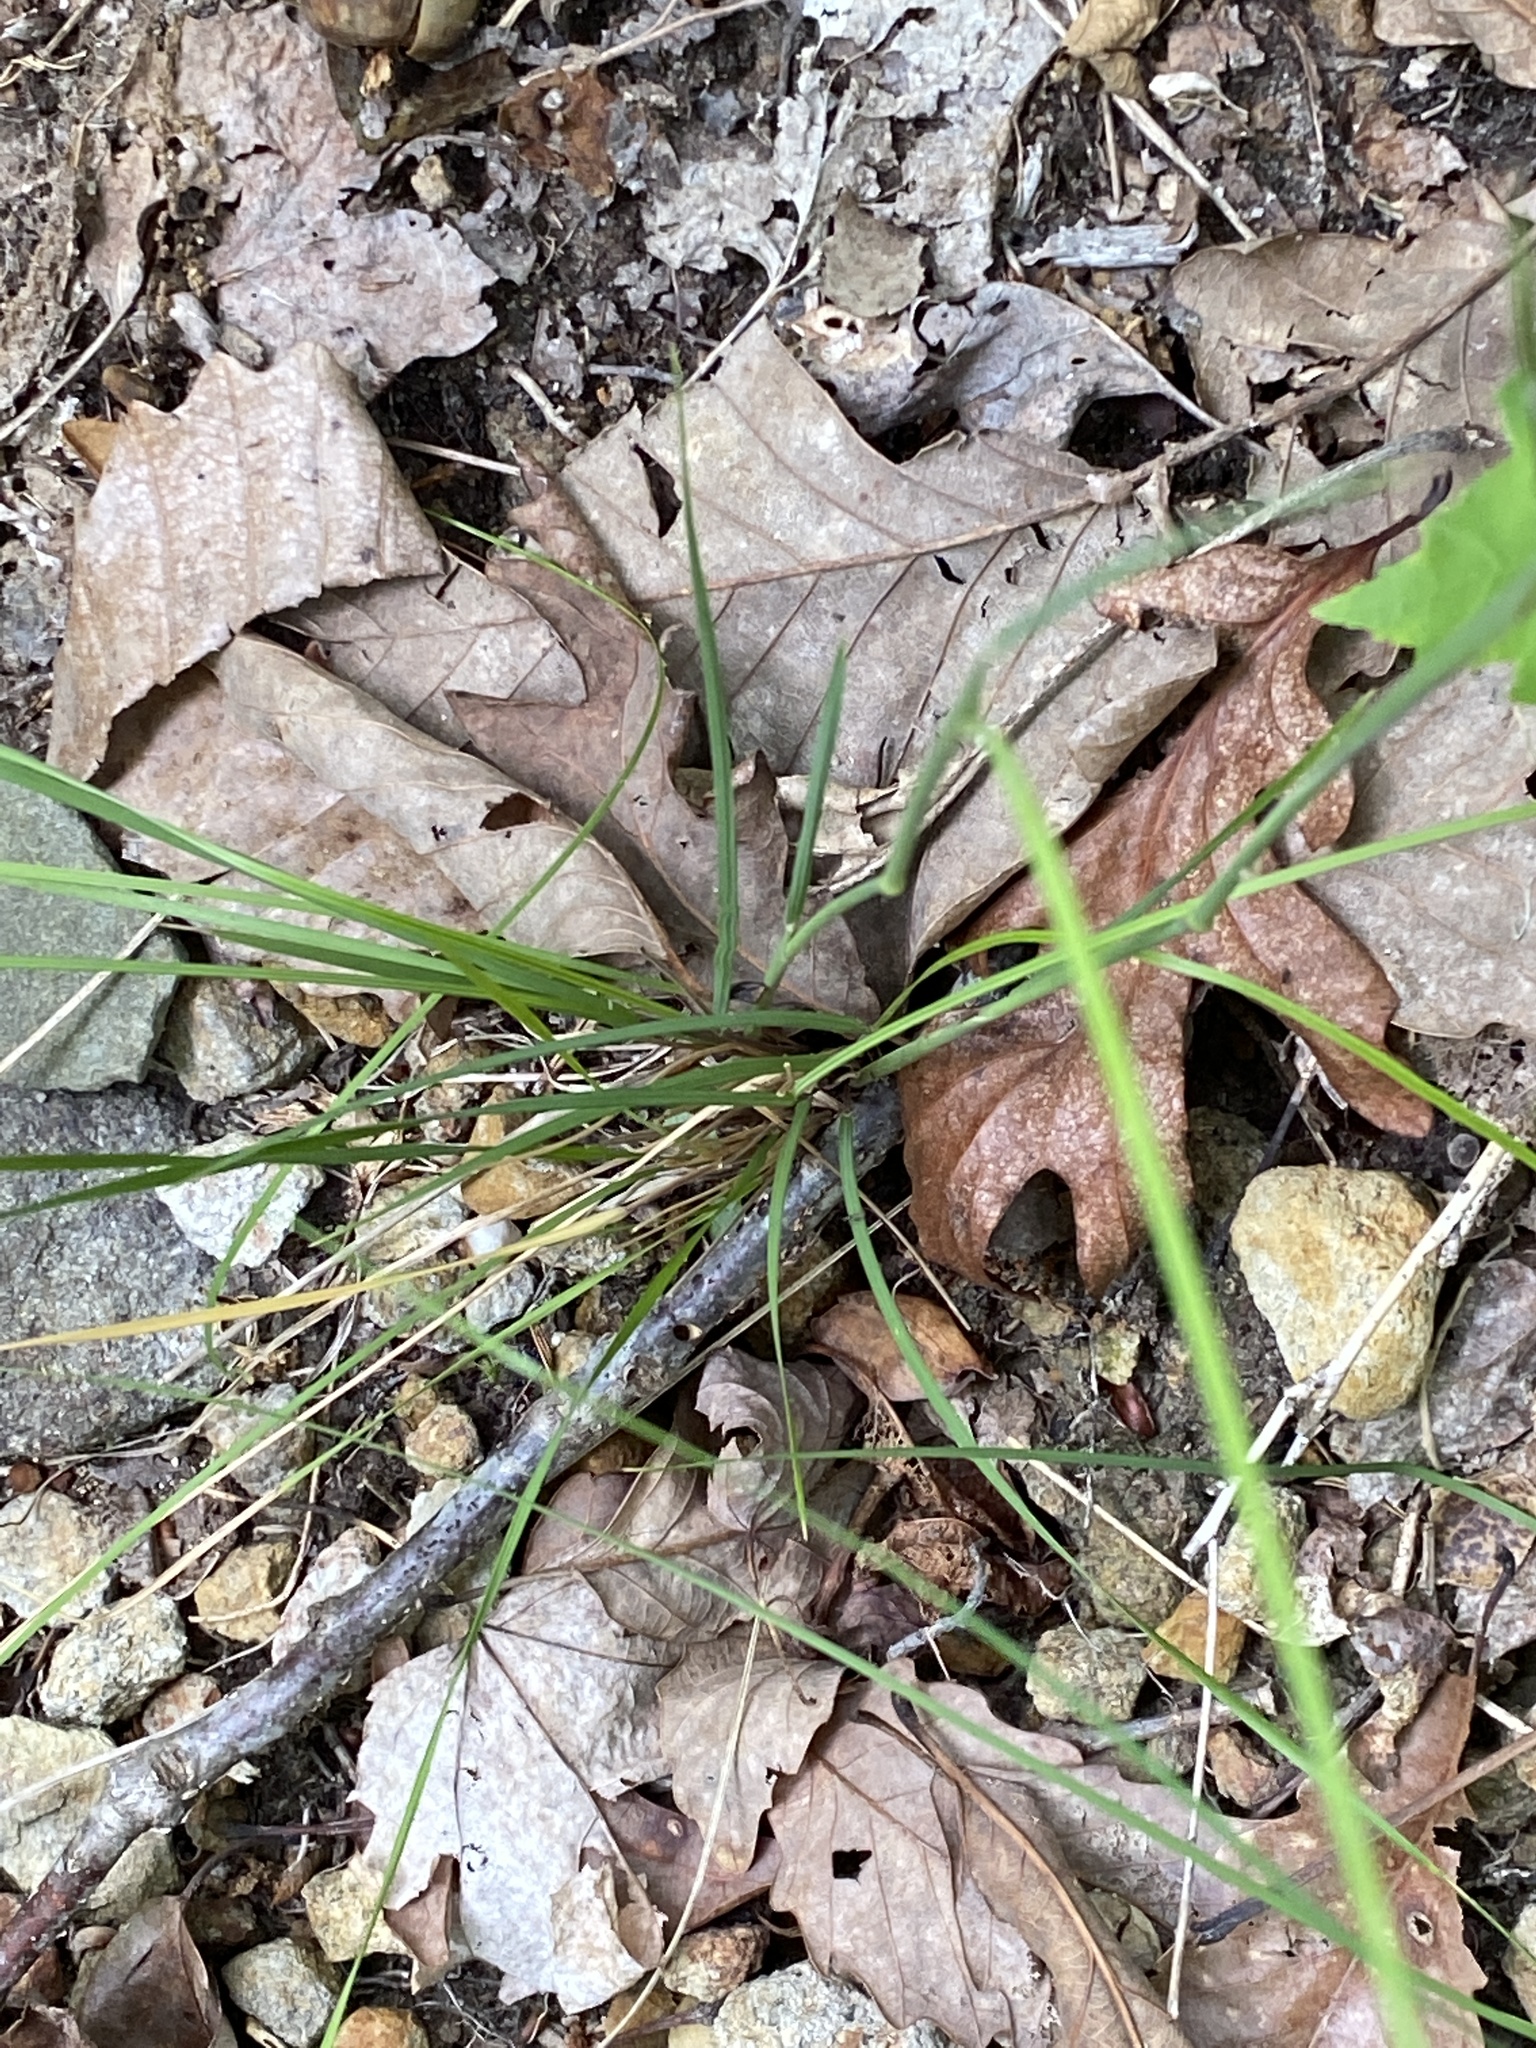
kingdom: Plantae
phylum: Tracheophyta
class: Liliopsida
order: Poales
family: Poaceae
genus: Piptochaetium
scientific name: Piptochaetium avenaceum
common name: Black bunchgrass
